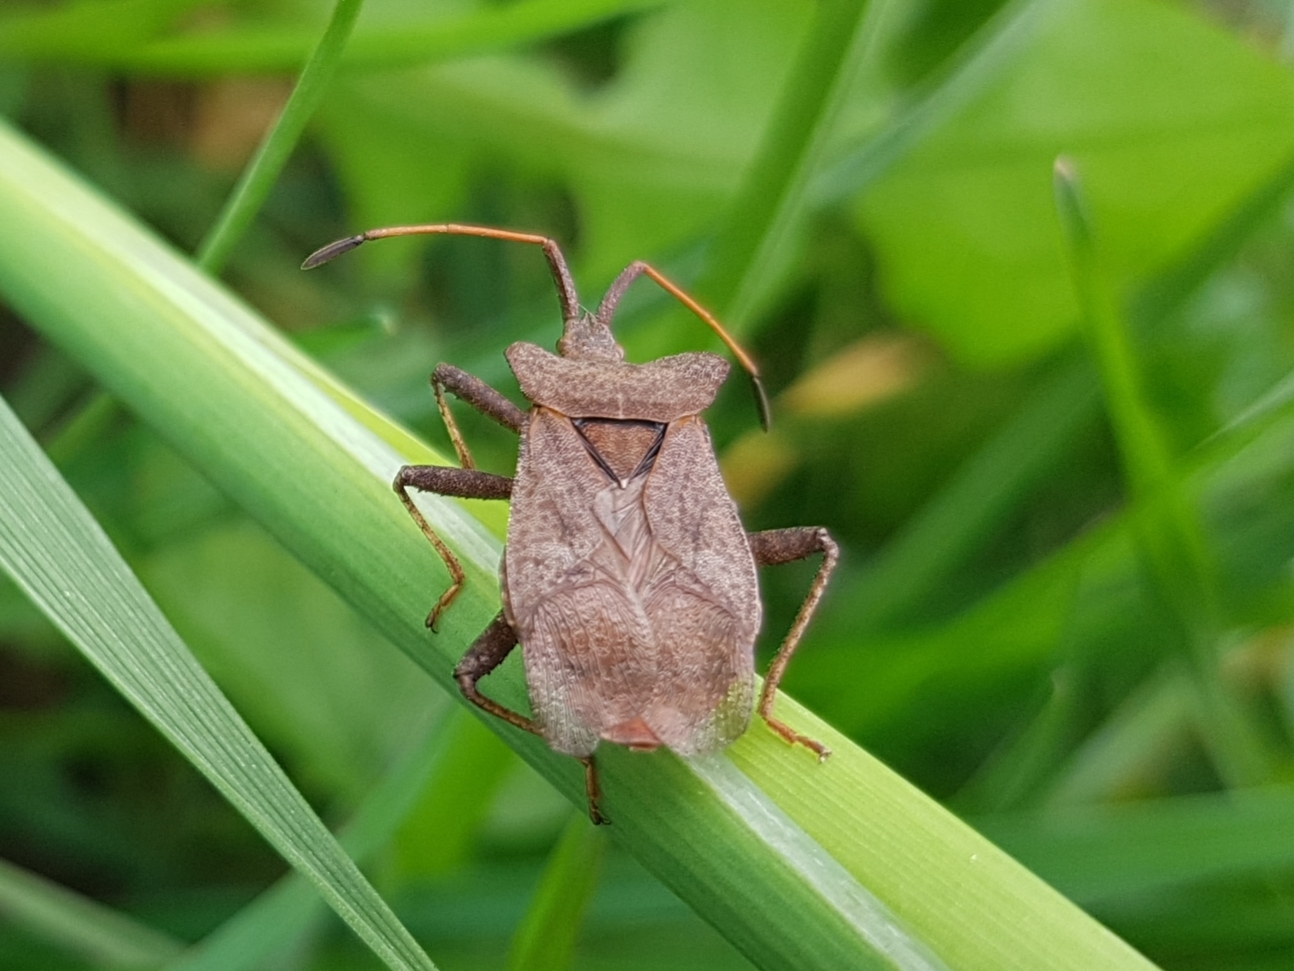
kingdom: Animalia
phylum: Arthropoda
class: Insecta
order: Hemiptera
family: Coreidae
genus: Coreus
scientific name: Coreus marginatus
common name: Dock bug
